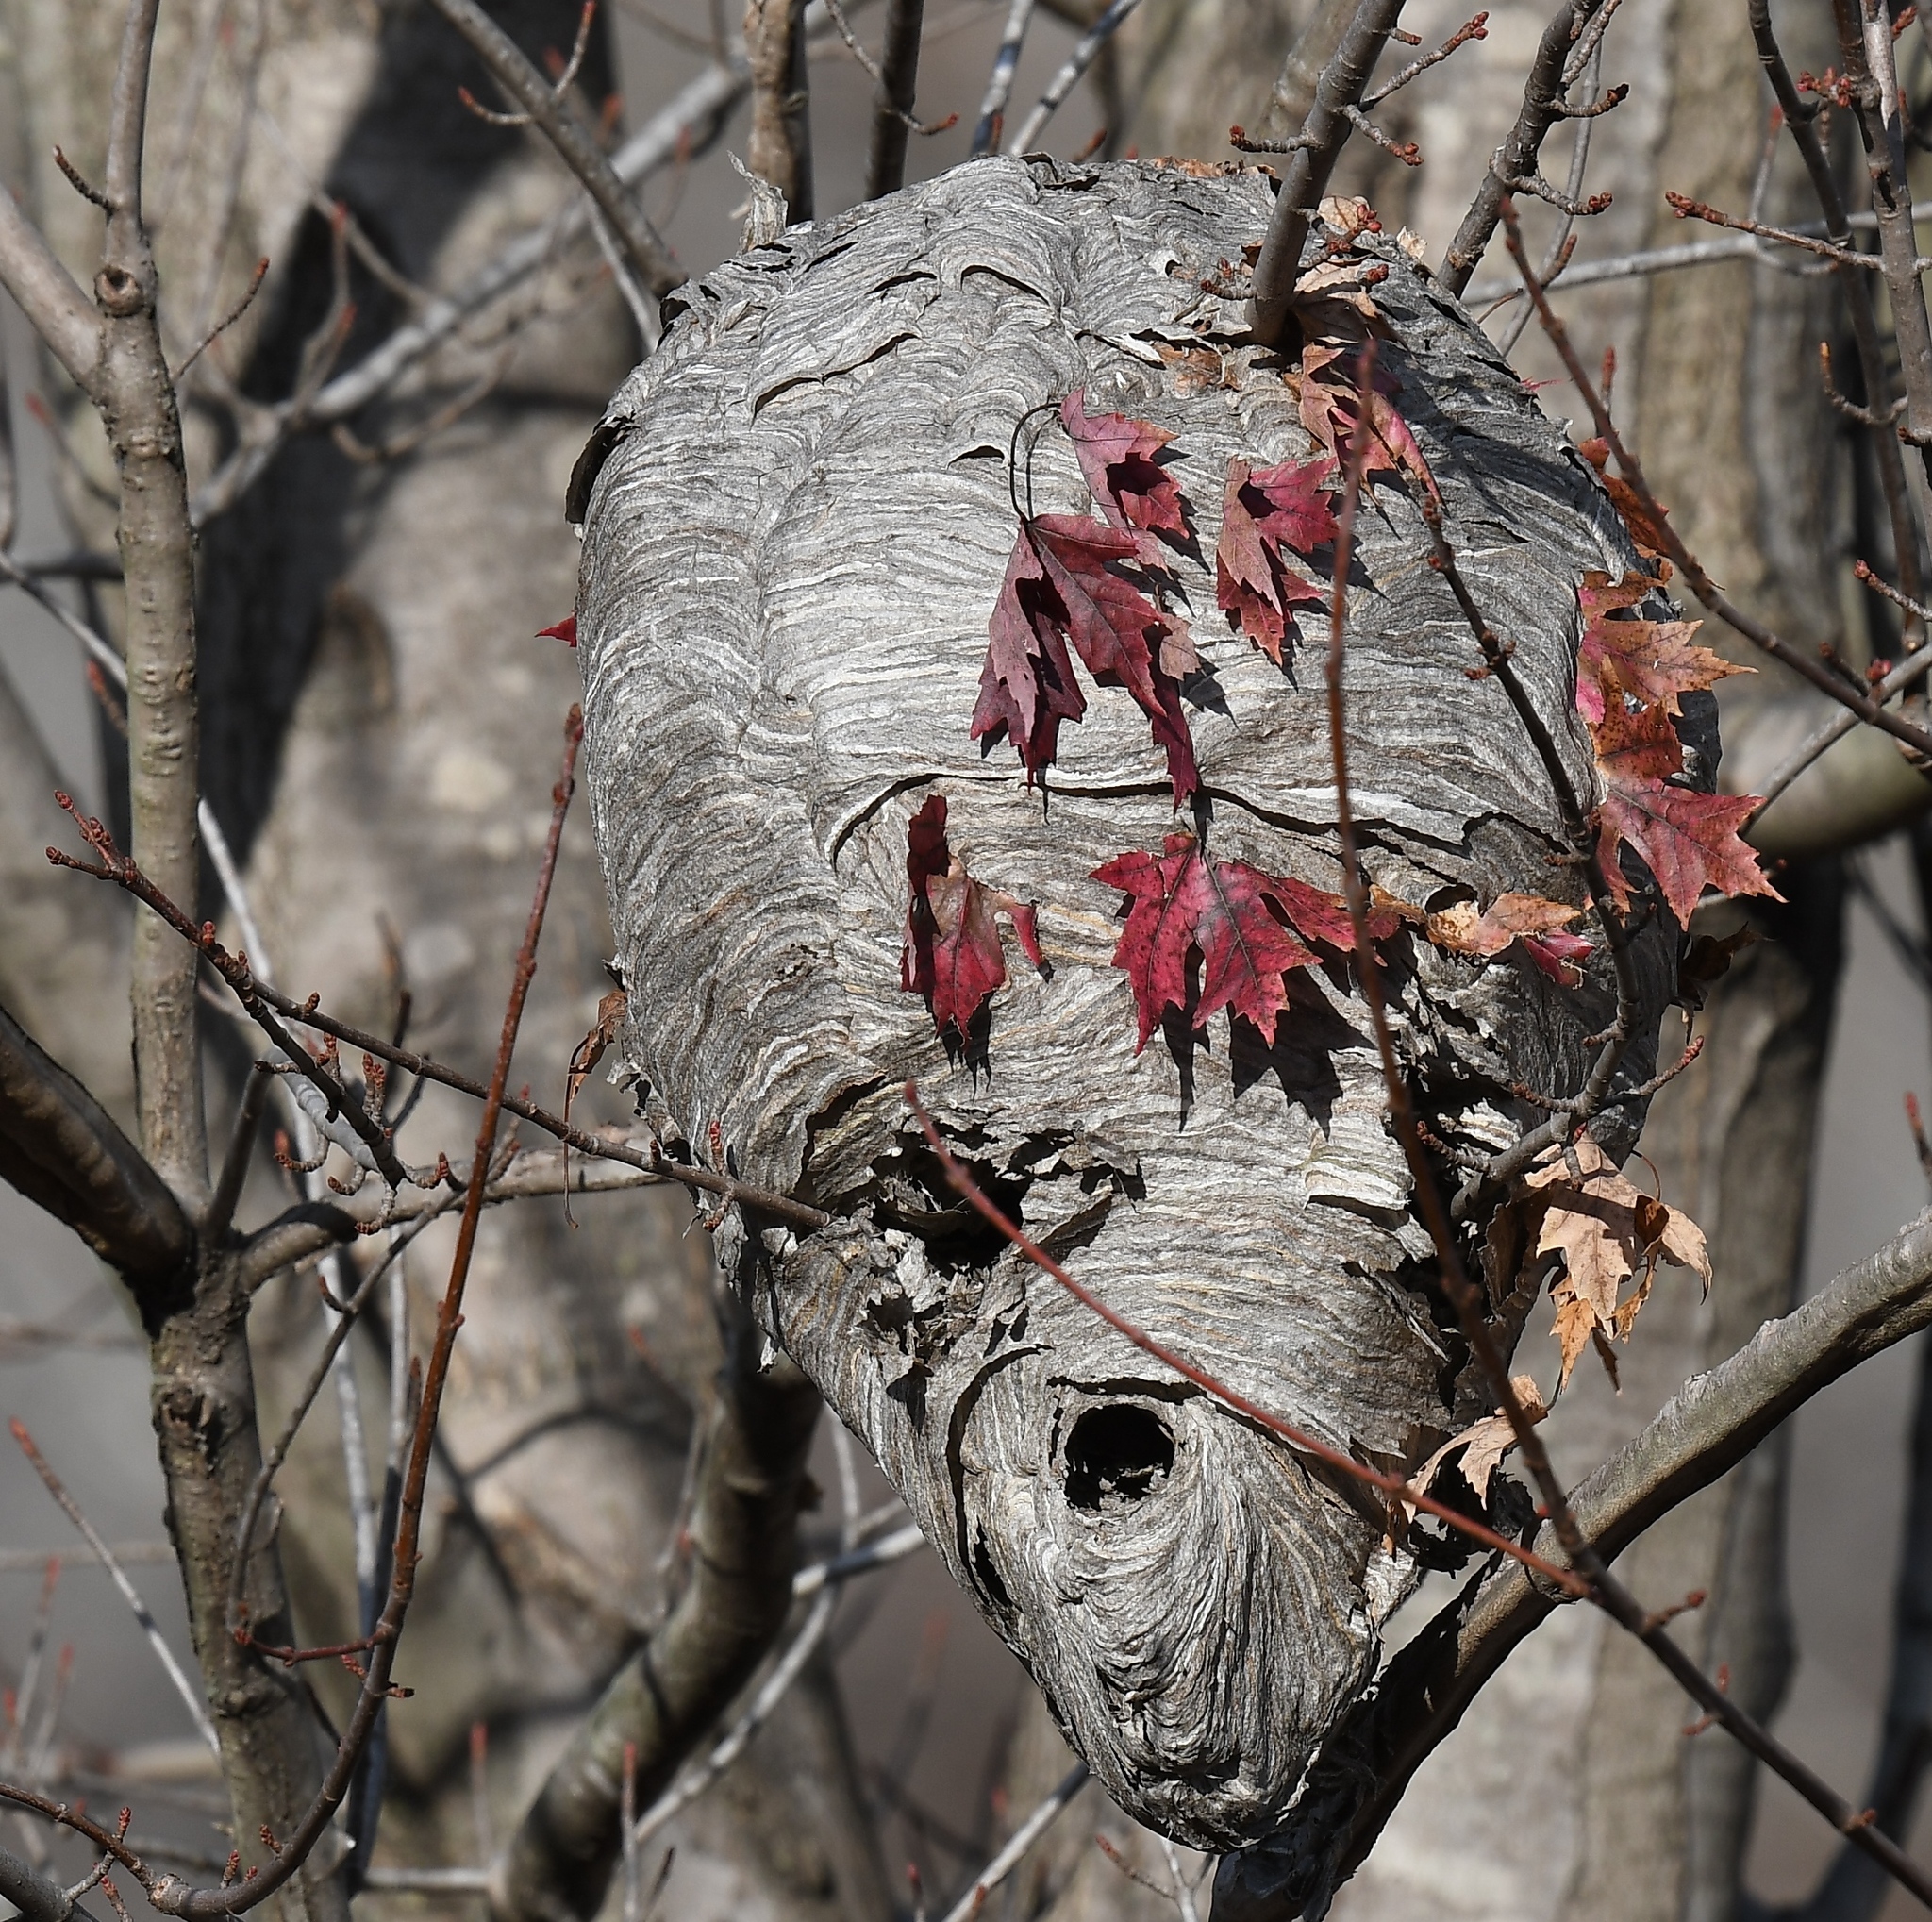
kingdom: Animalia
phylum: Arthropoda
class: Insecta
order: Hymenoptera
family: Vespidae
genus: Dolichovespula
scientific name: Dolichovespula maculata
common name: Bald-faced hornet
